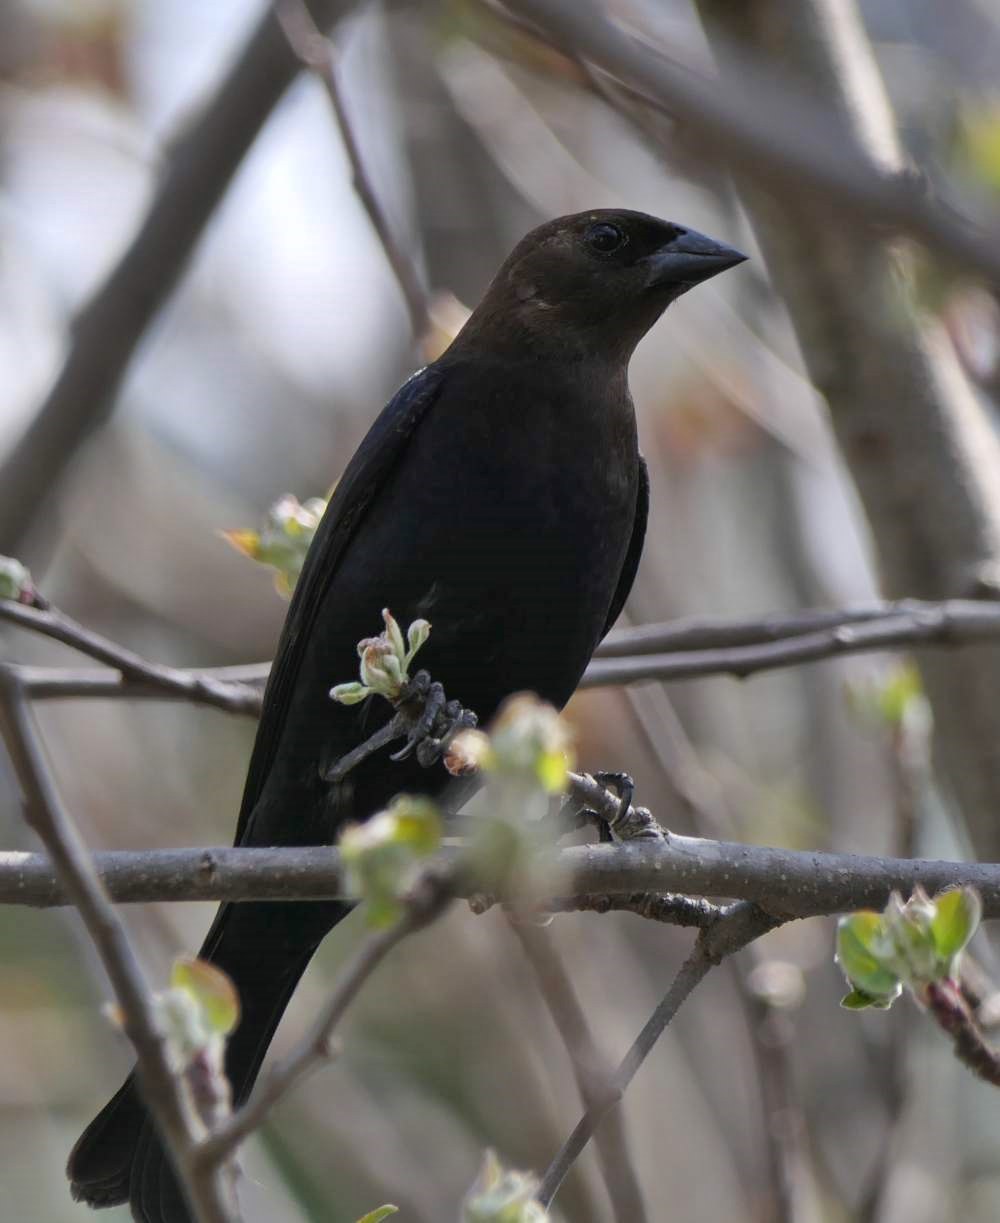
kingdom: Animalia
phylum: Chordata
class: Aves
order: Passeriformes
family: Icteridae
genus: Molothrus
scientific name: Molothrus ater
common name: Brown-headed cowbird
